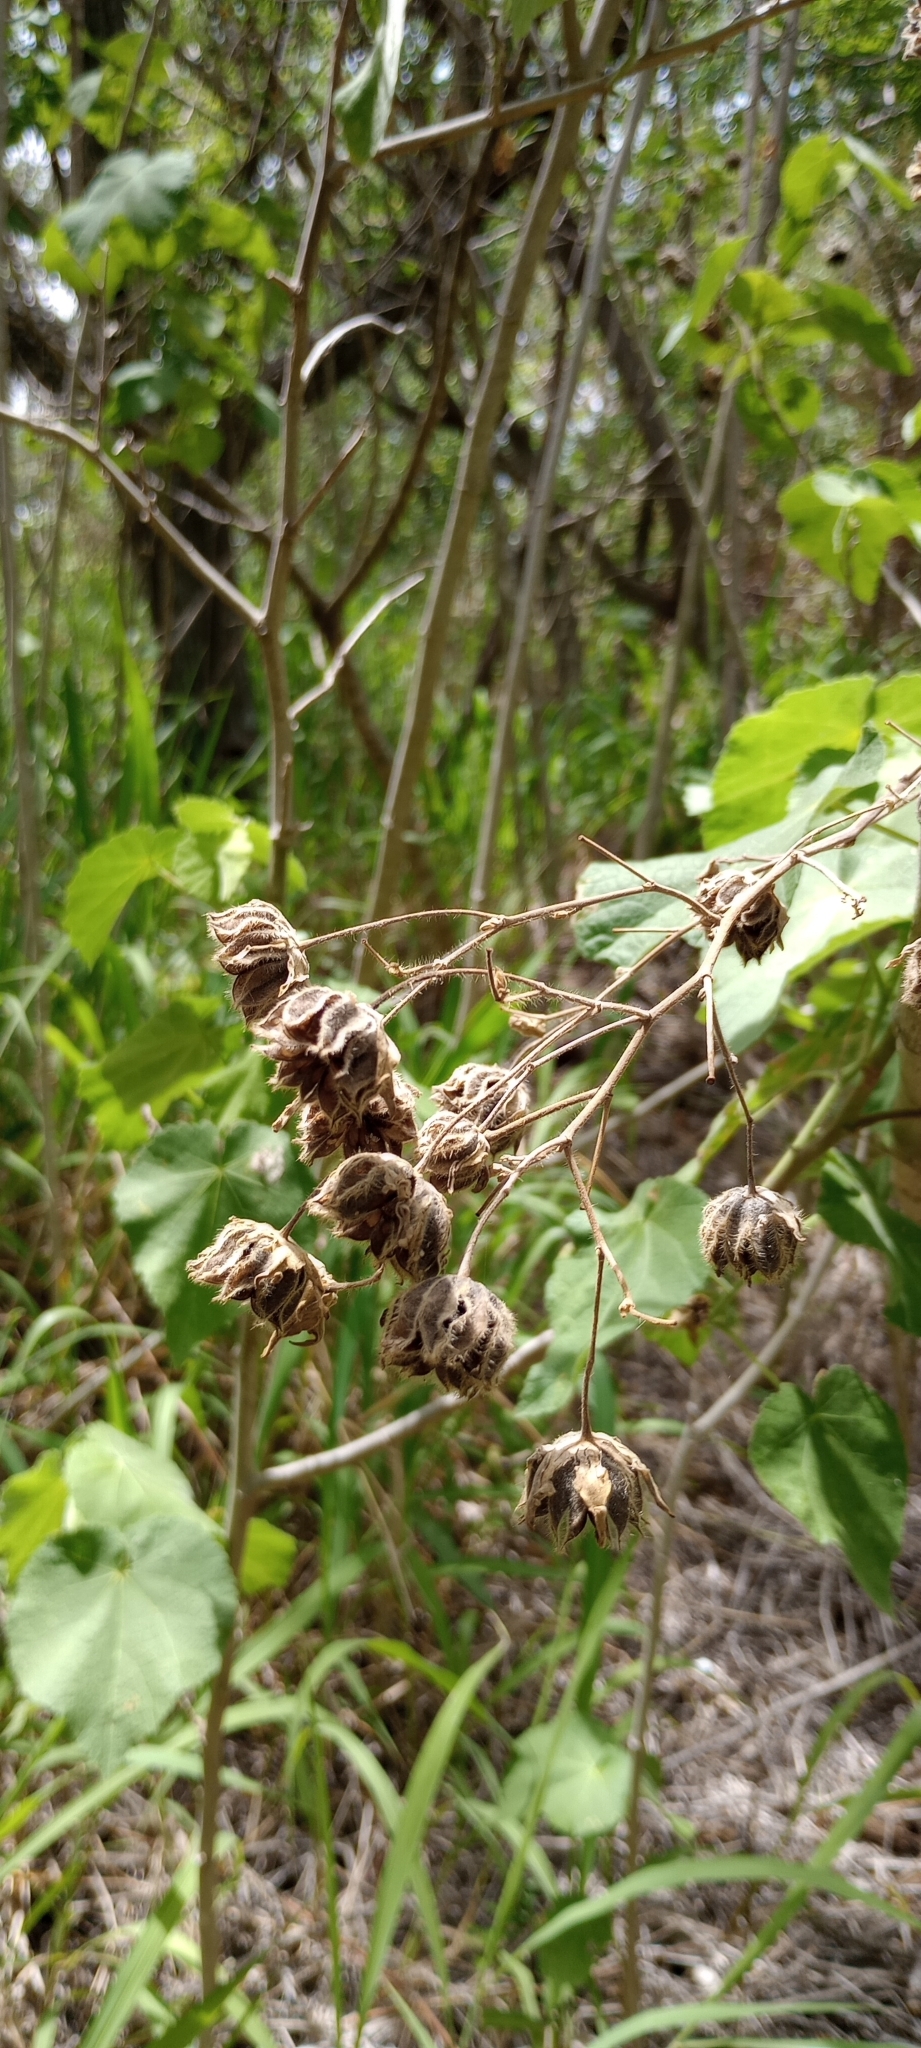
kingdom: Plantae
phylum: Tracheophyta
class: Magnoliopsida
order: Malvales
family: Malvaceae
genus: Abutilon
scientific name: Abutilon grandifolium
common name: Hairy abutilon
